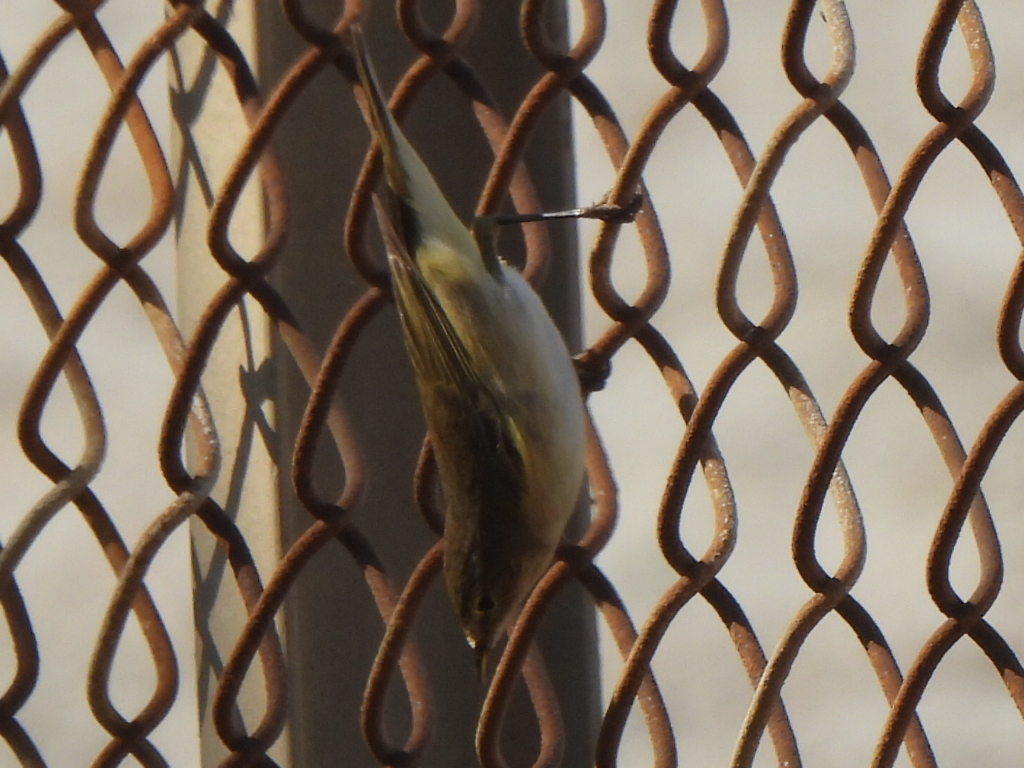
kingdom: Animalia
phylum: Chordata
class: Aves
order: Passeriformes
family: Phylloscopidae
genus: Phylloscopus
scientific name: Phylloscopus collybita
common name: Common chiffchaff
